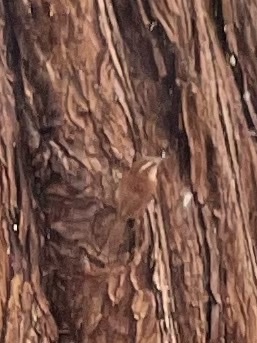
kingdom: Animalia
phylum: Chordata
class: Aves
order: Passeriformes
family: Troglodytidae
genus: Thryothorus
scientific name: Thryothorus ludovicianus
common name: Carolina wren
